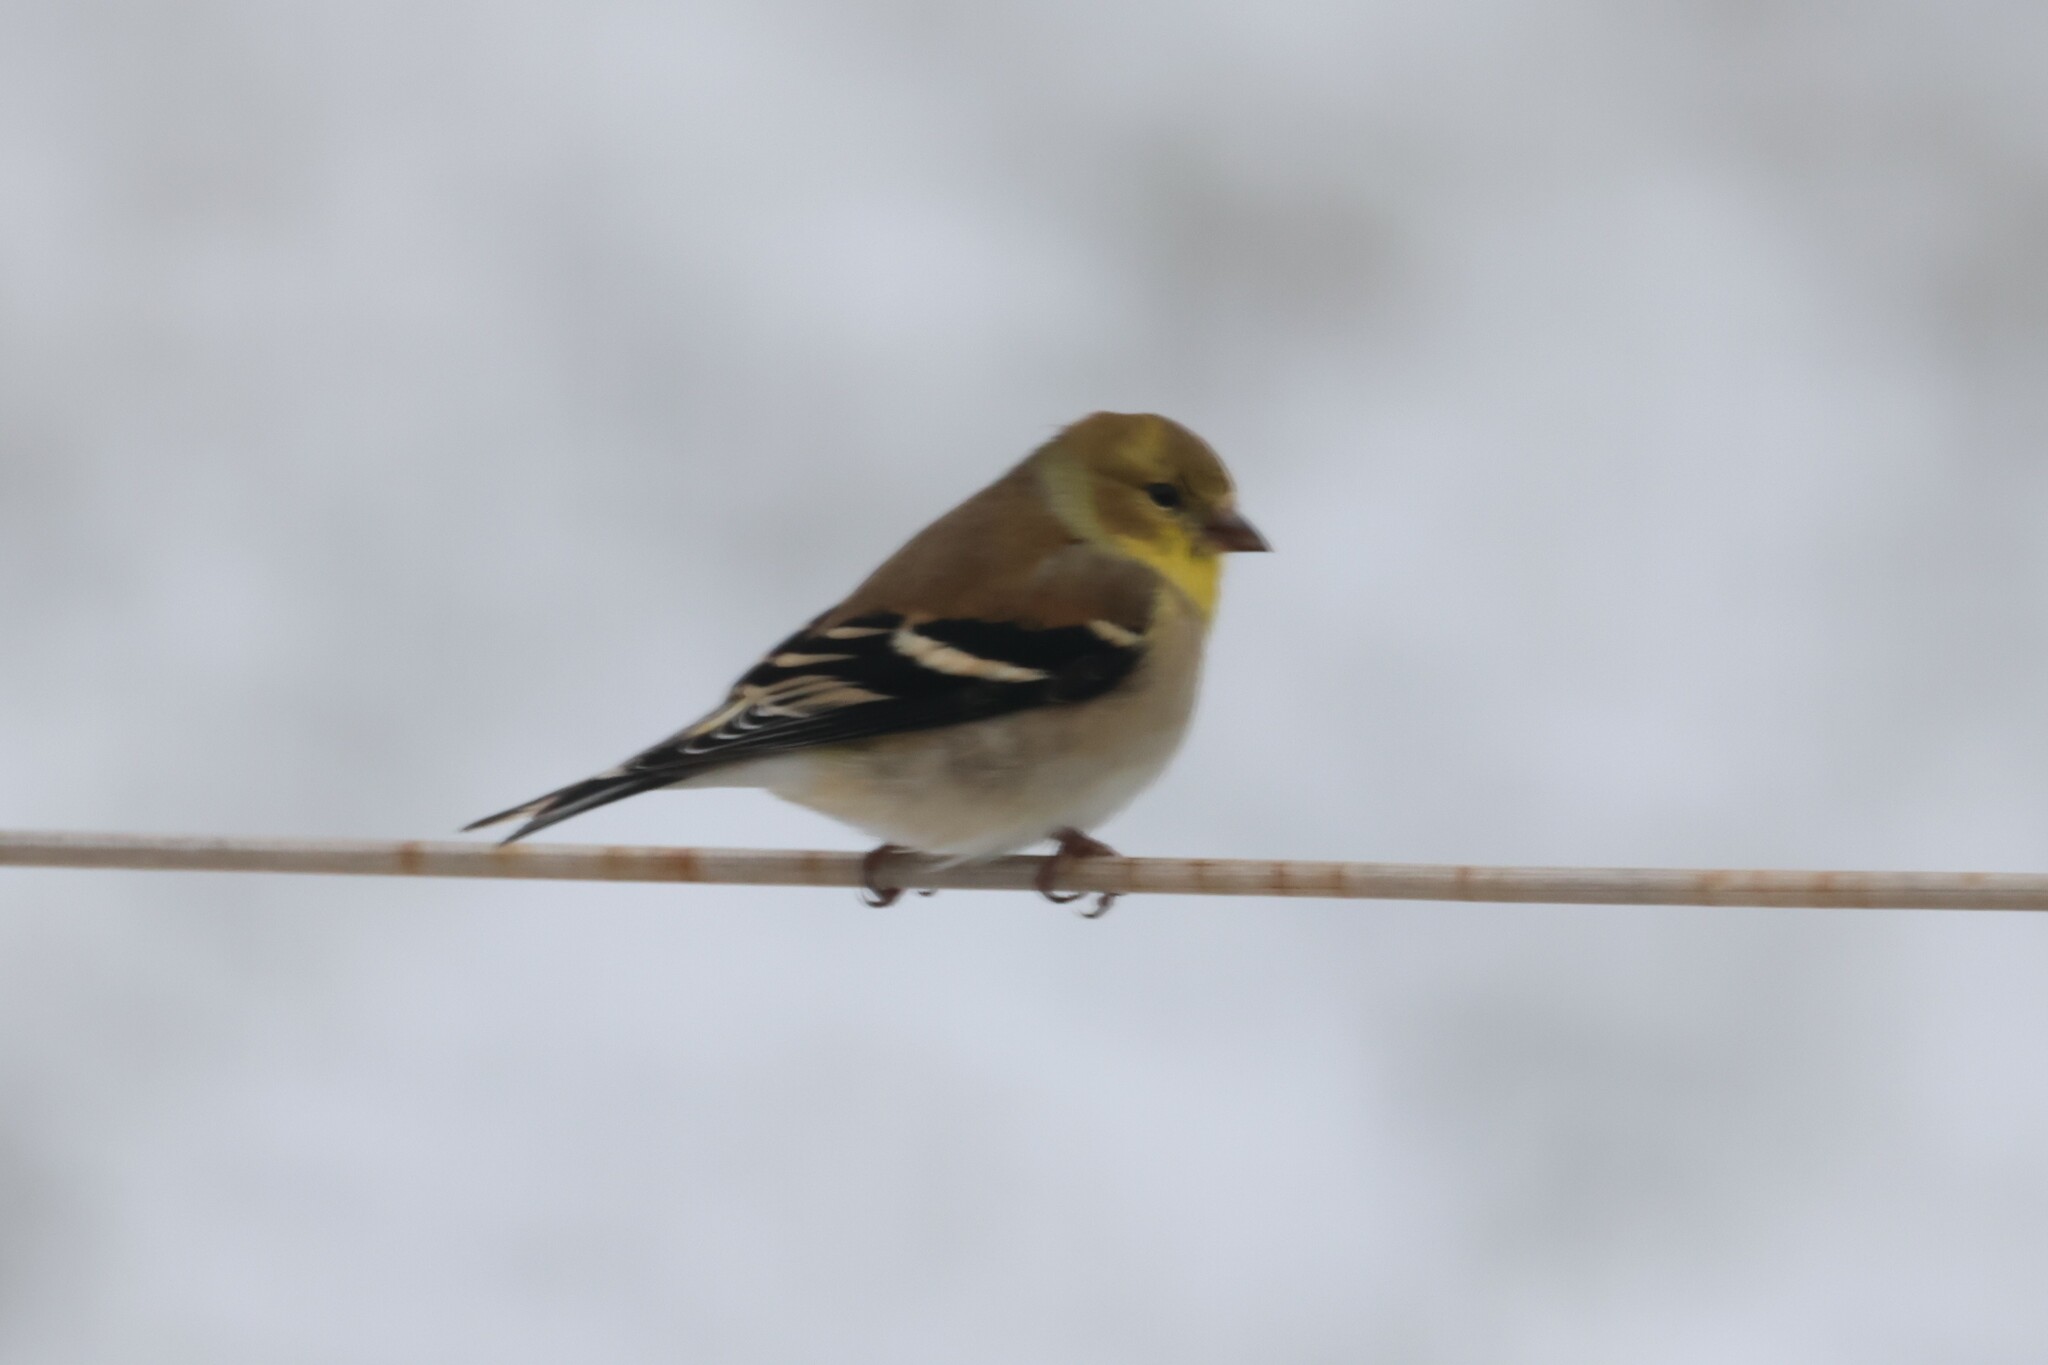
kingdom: Animalia
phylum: Chordata
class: Aves
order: Passeriformes
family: Fringillidae
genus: Spinus
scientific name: Spinus tristis
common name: American goldfinch
